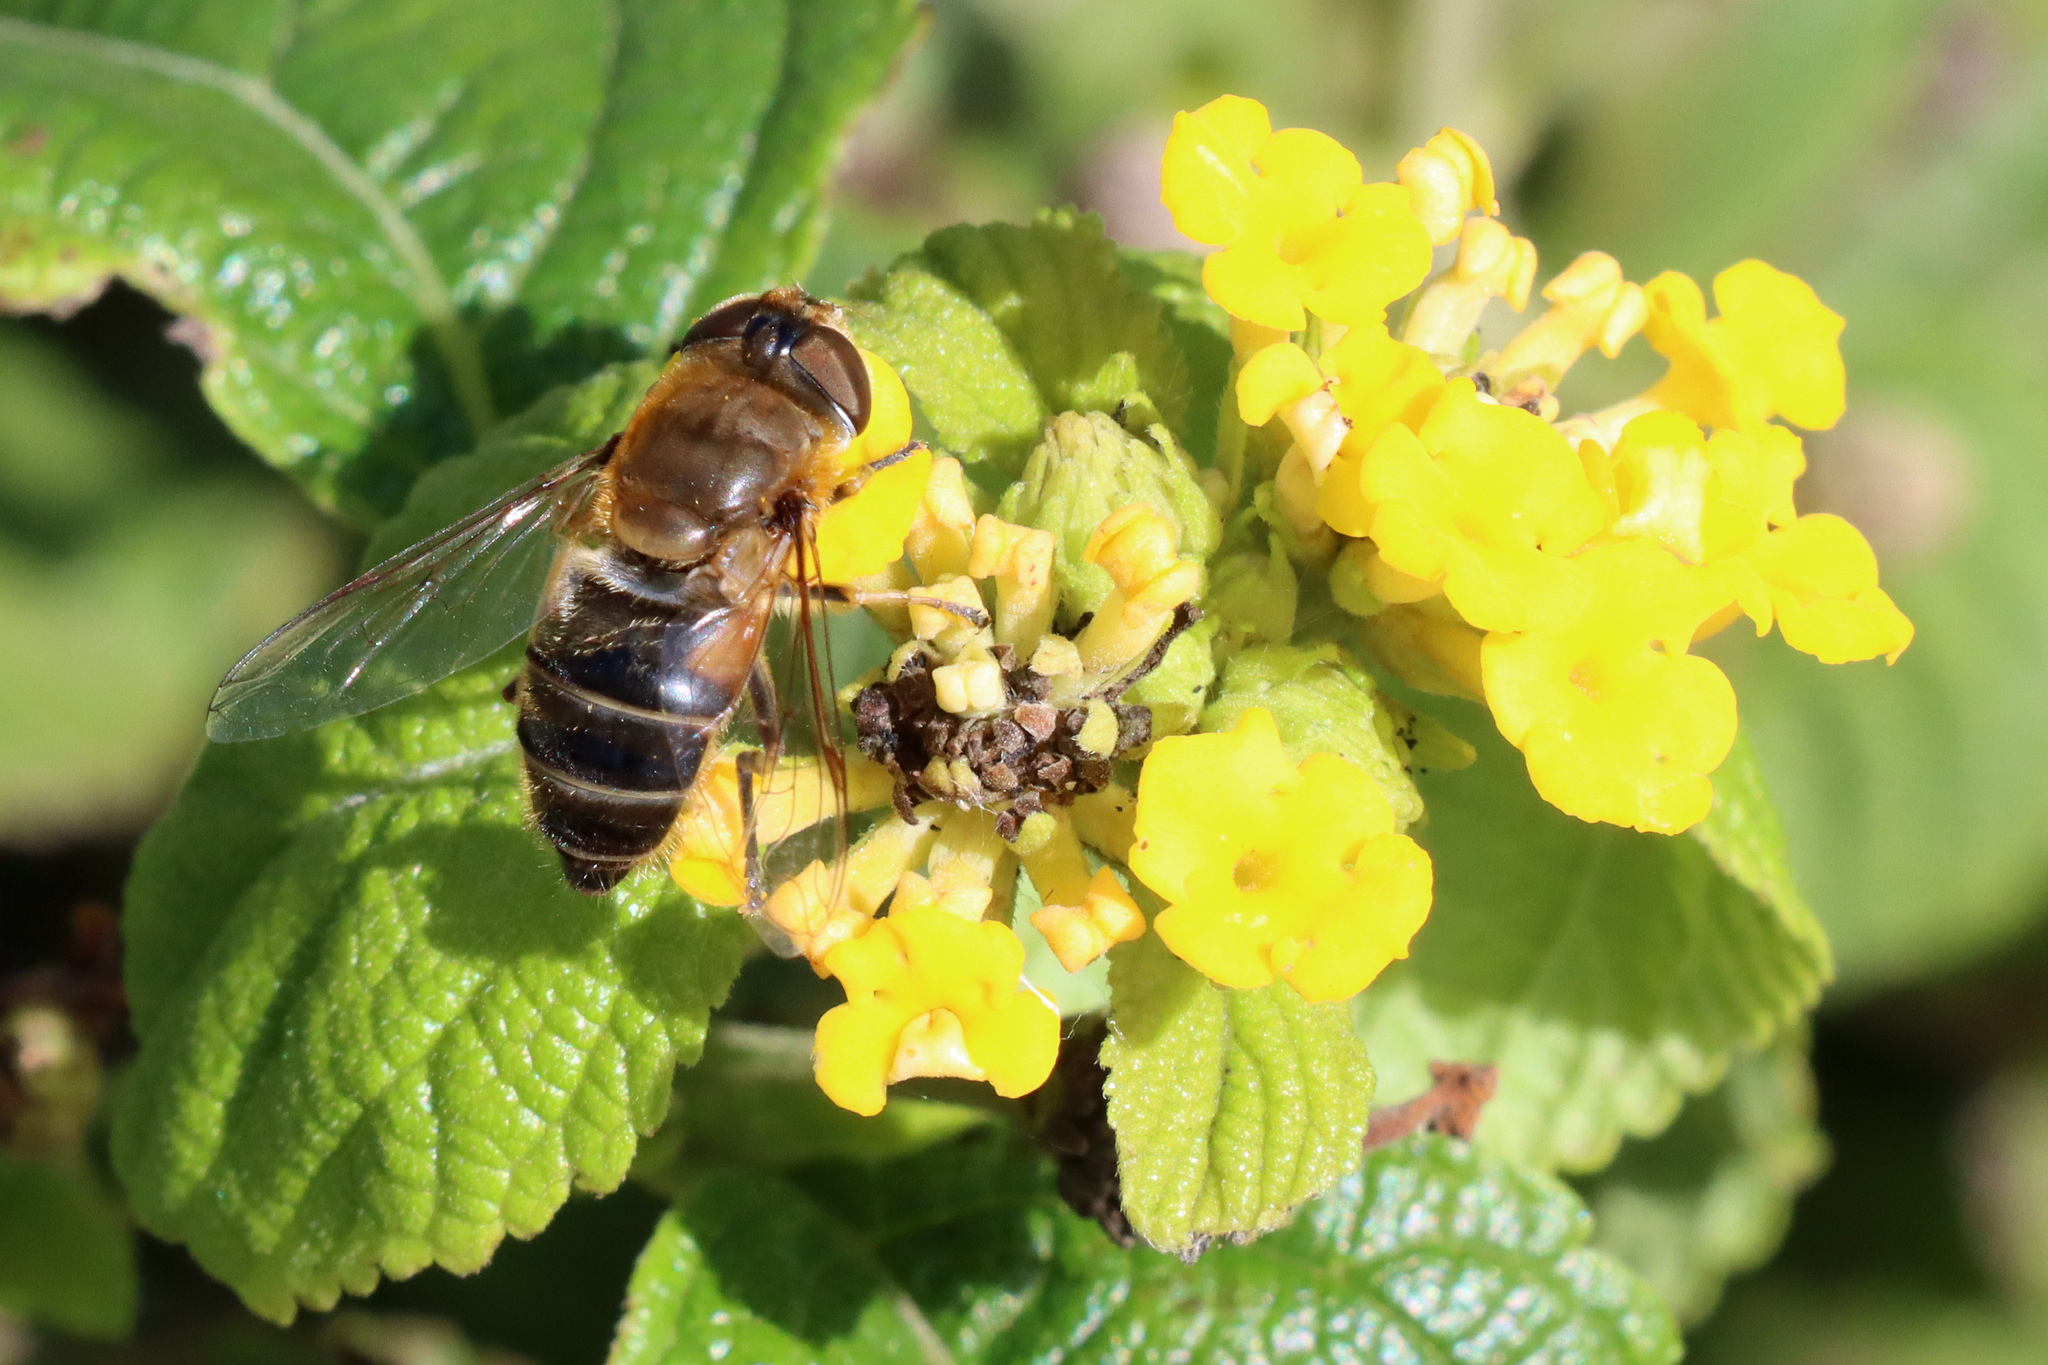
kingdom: Animalia
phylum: Arthropoda
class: Insecta
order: Diptera
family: Syrphidae
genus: Eristalis
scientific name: Eristalis pertinax
